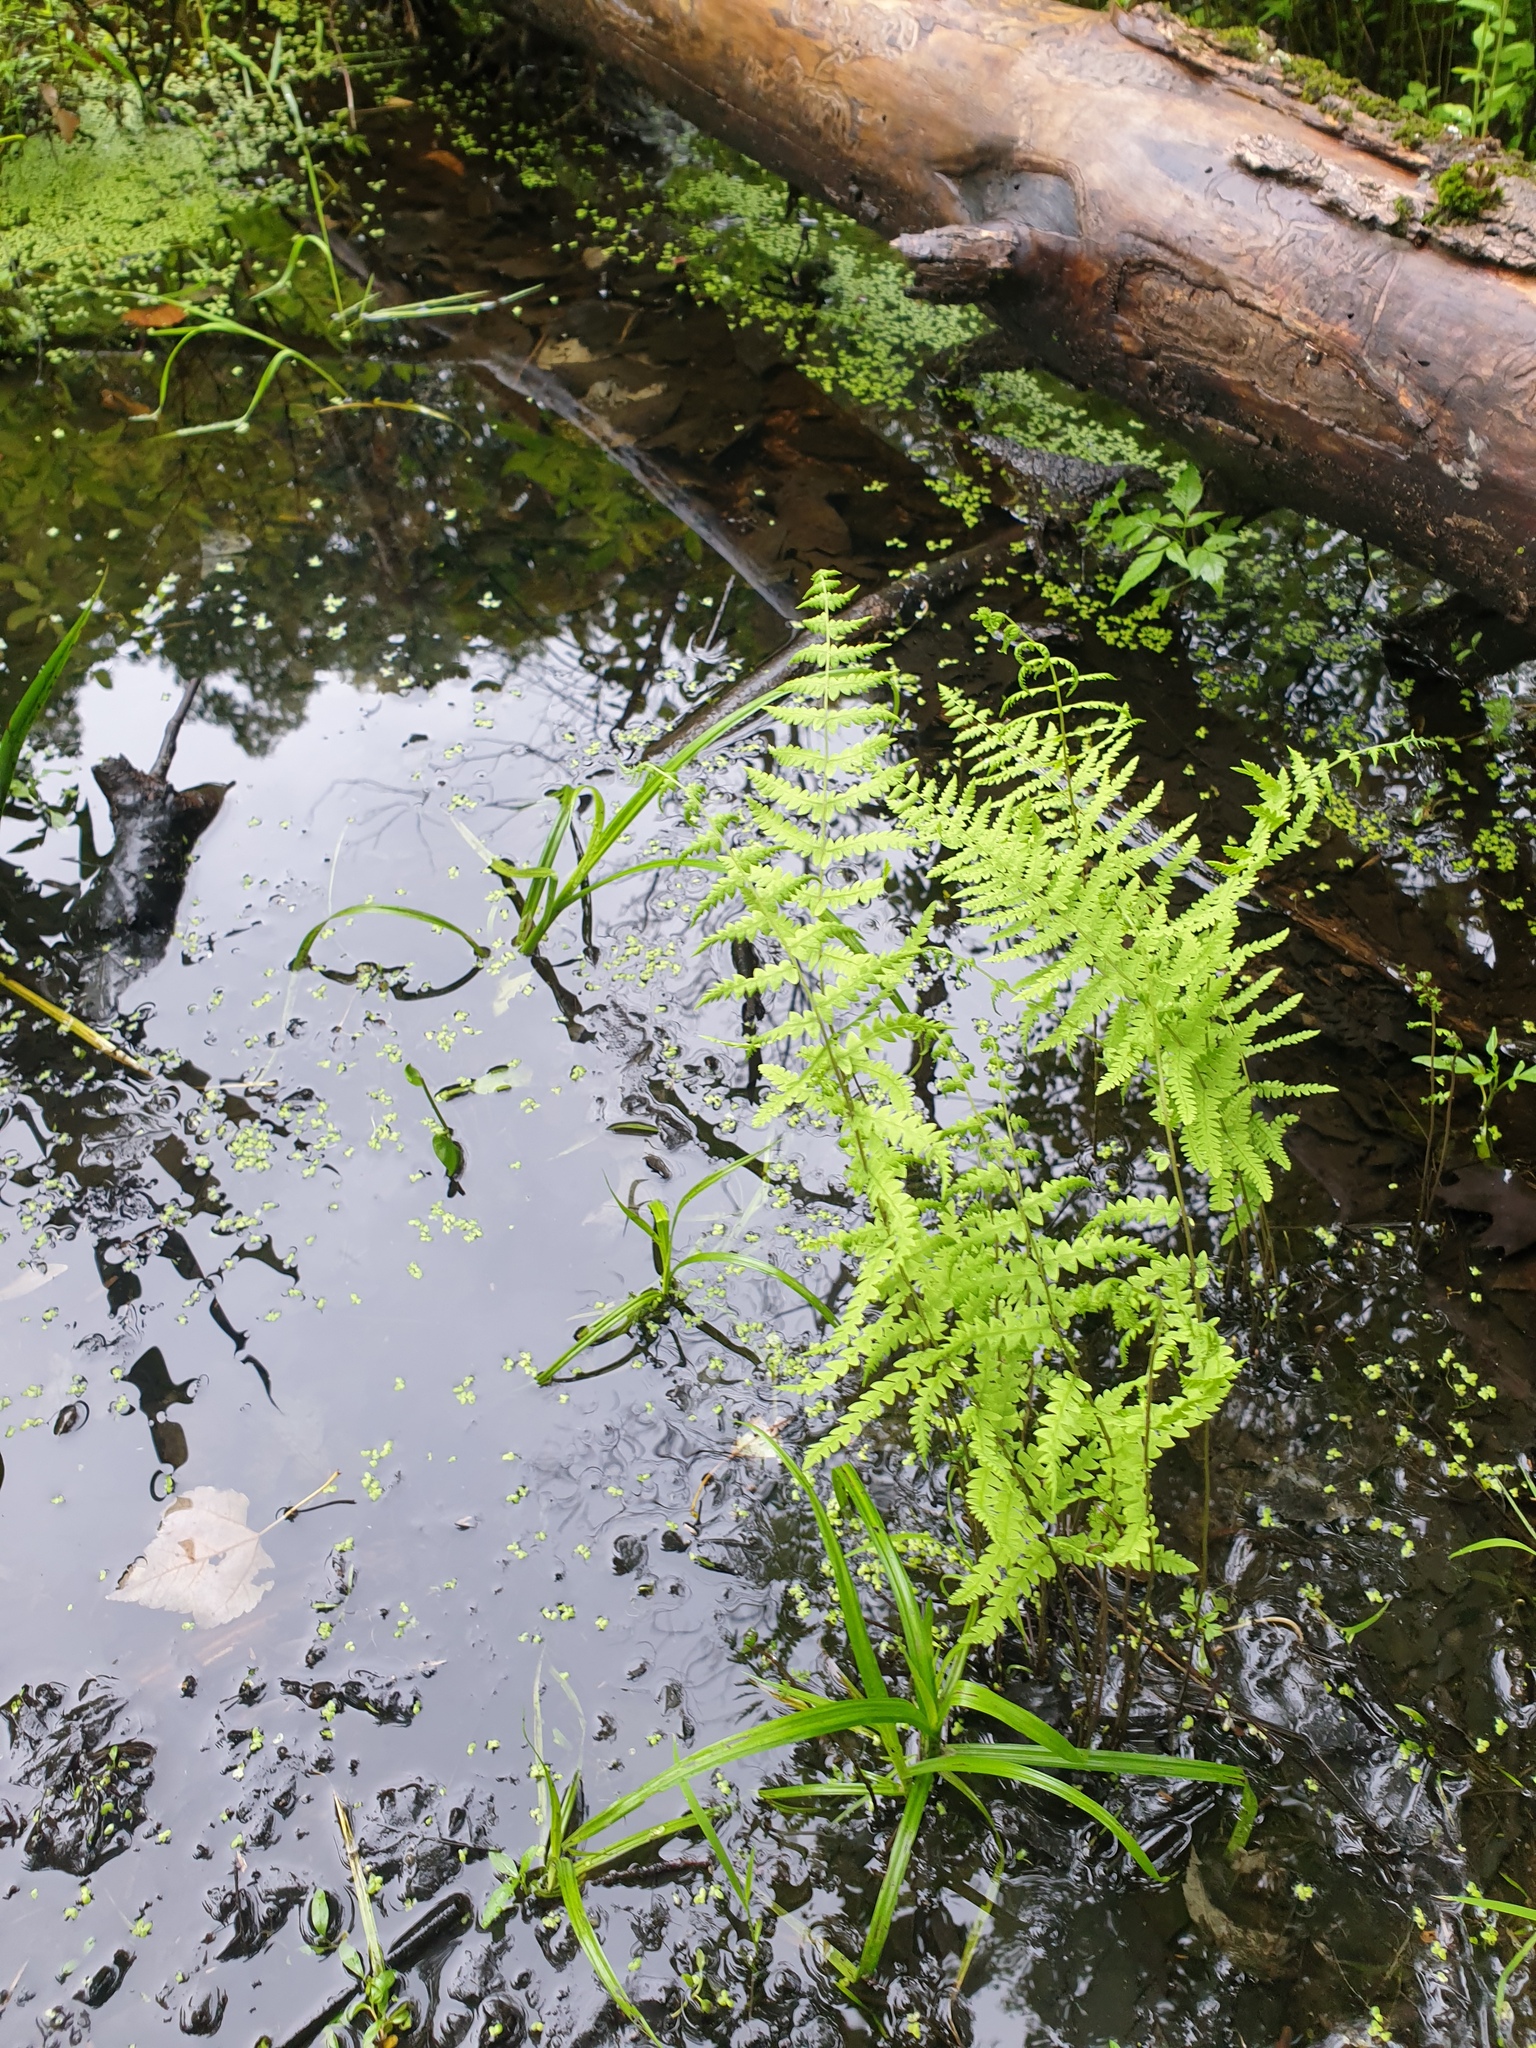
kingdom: Plantae
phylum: Tracheophyta
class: Polypodiopsida
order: Polypodiales
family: Thelypteridaceae
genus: Thelypteris
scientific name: Thelypteris palustris
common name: Marsh fern
